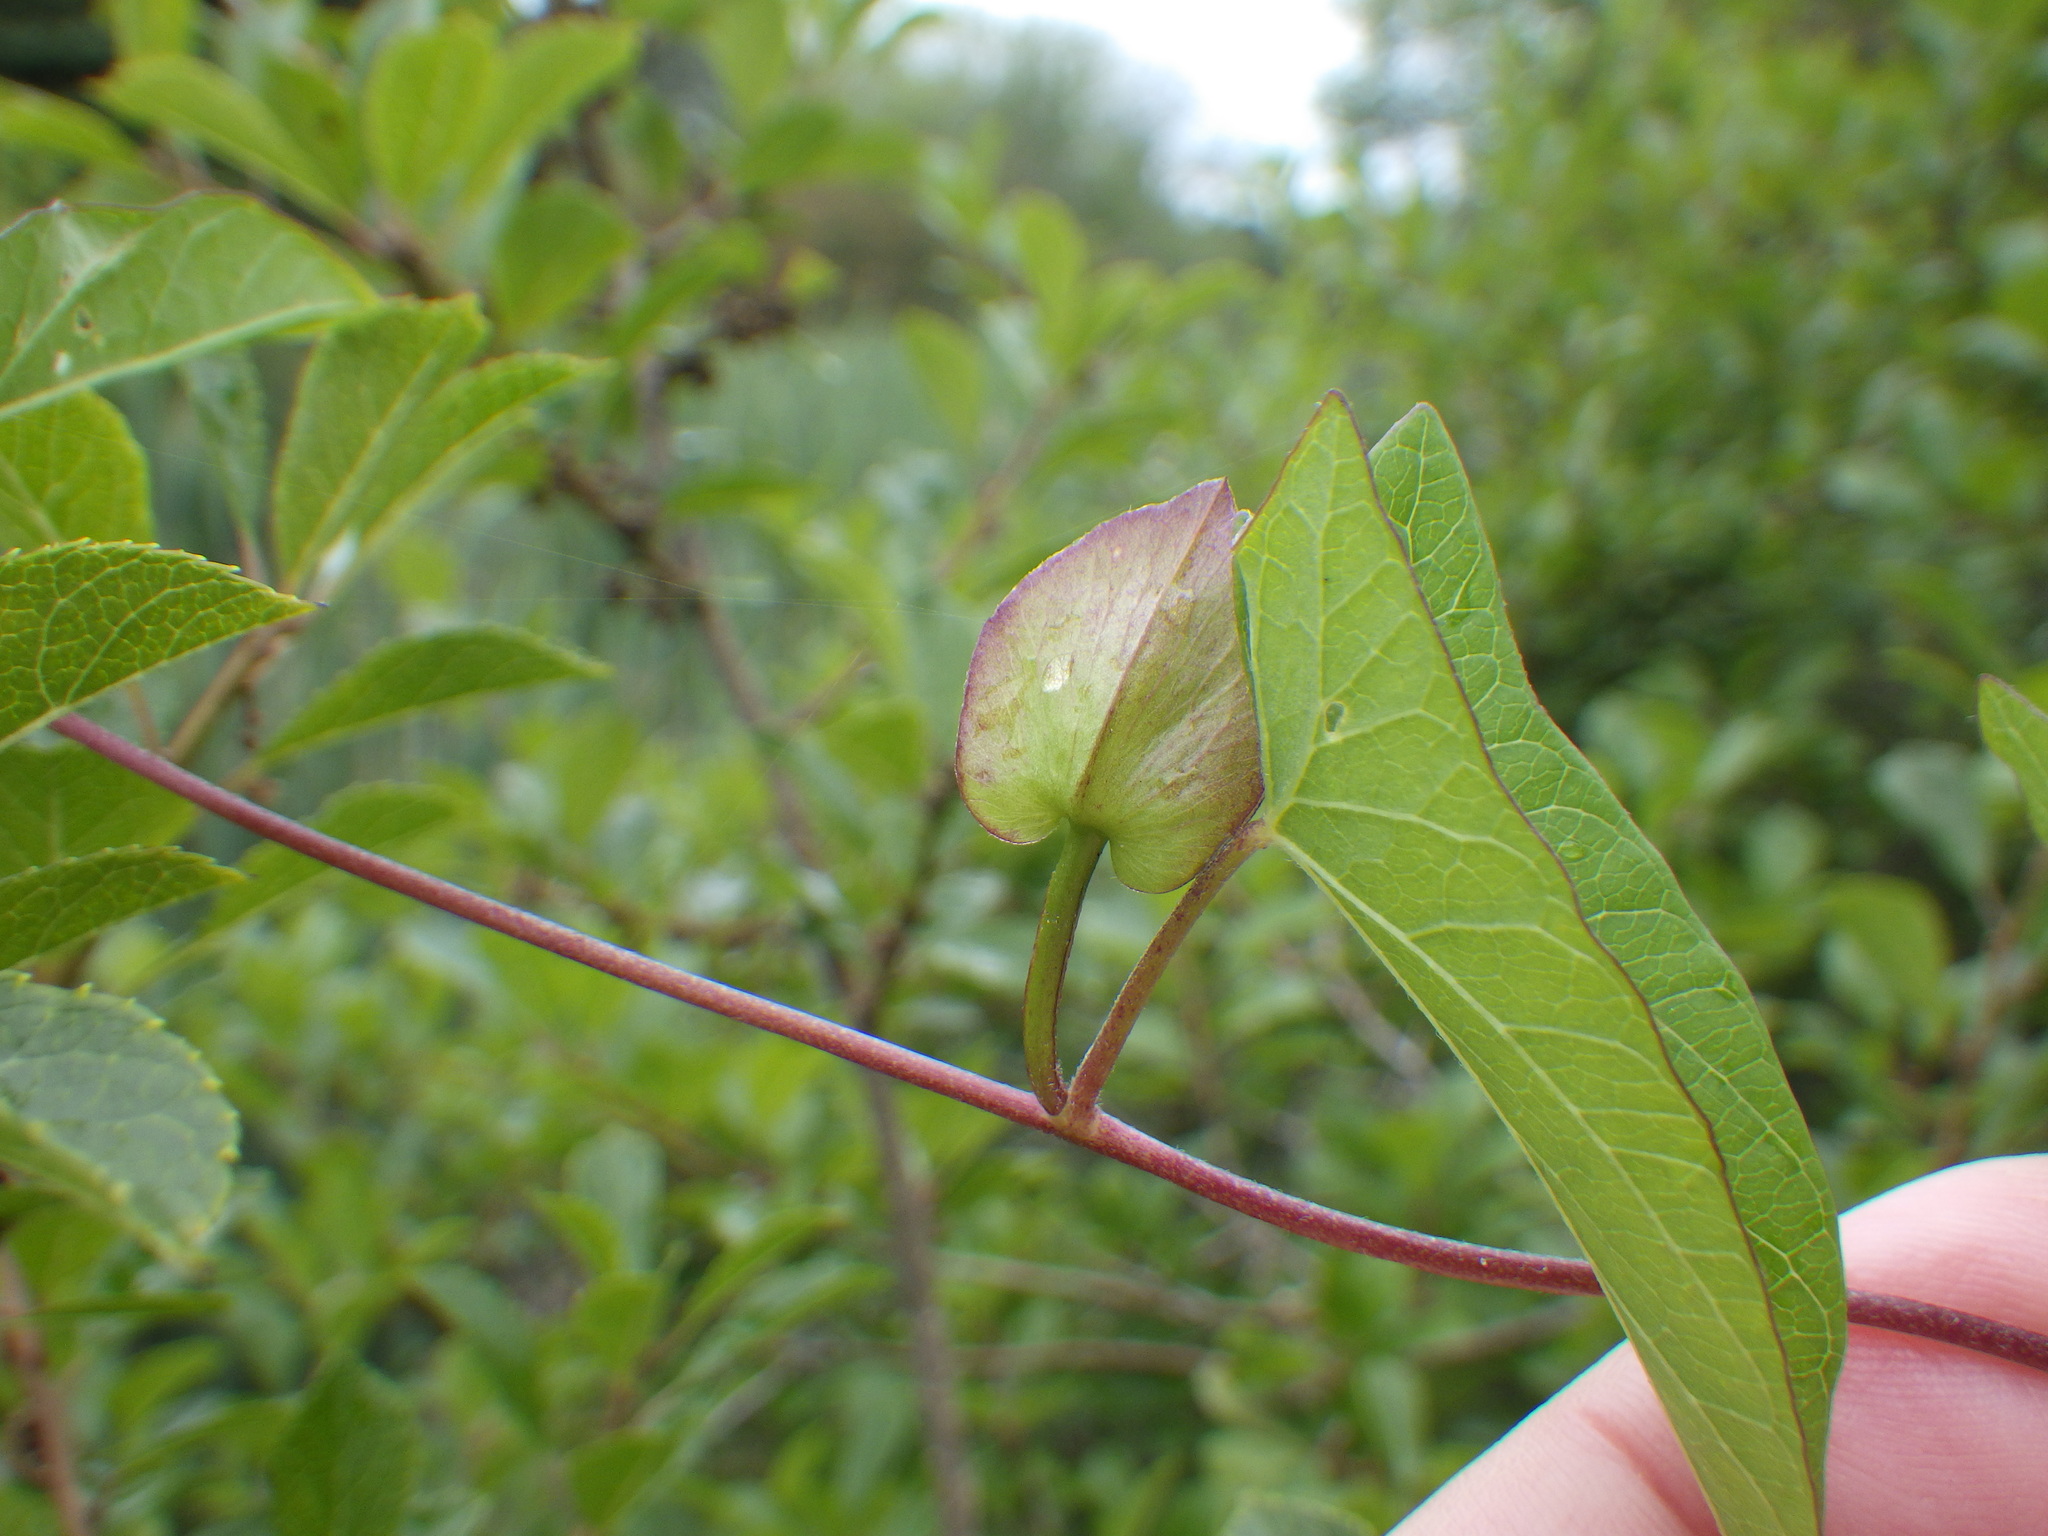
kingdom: Plantae
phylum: Tracheophyta
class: Magnoliopsida
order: Solanales
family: Convolvulaceae
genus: Calystegia
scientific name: Calystegia sepium
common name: Hedge bindweed
